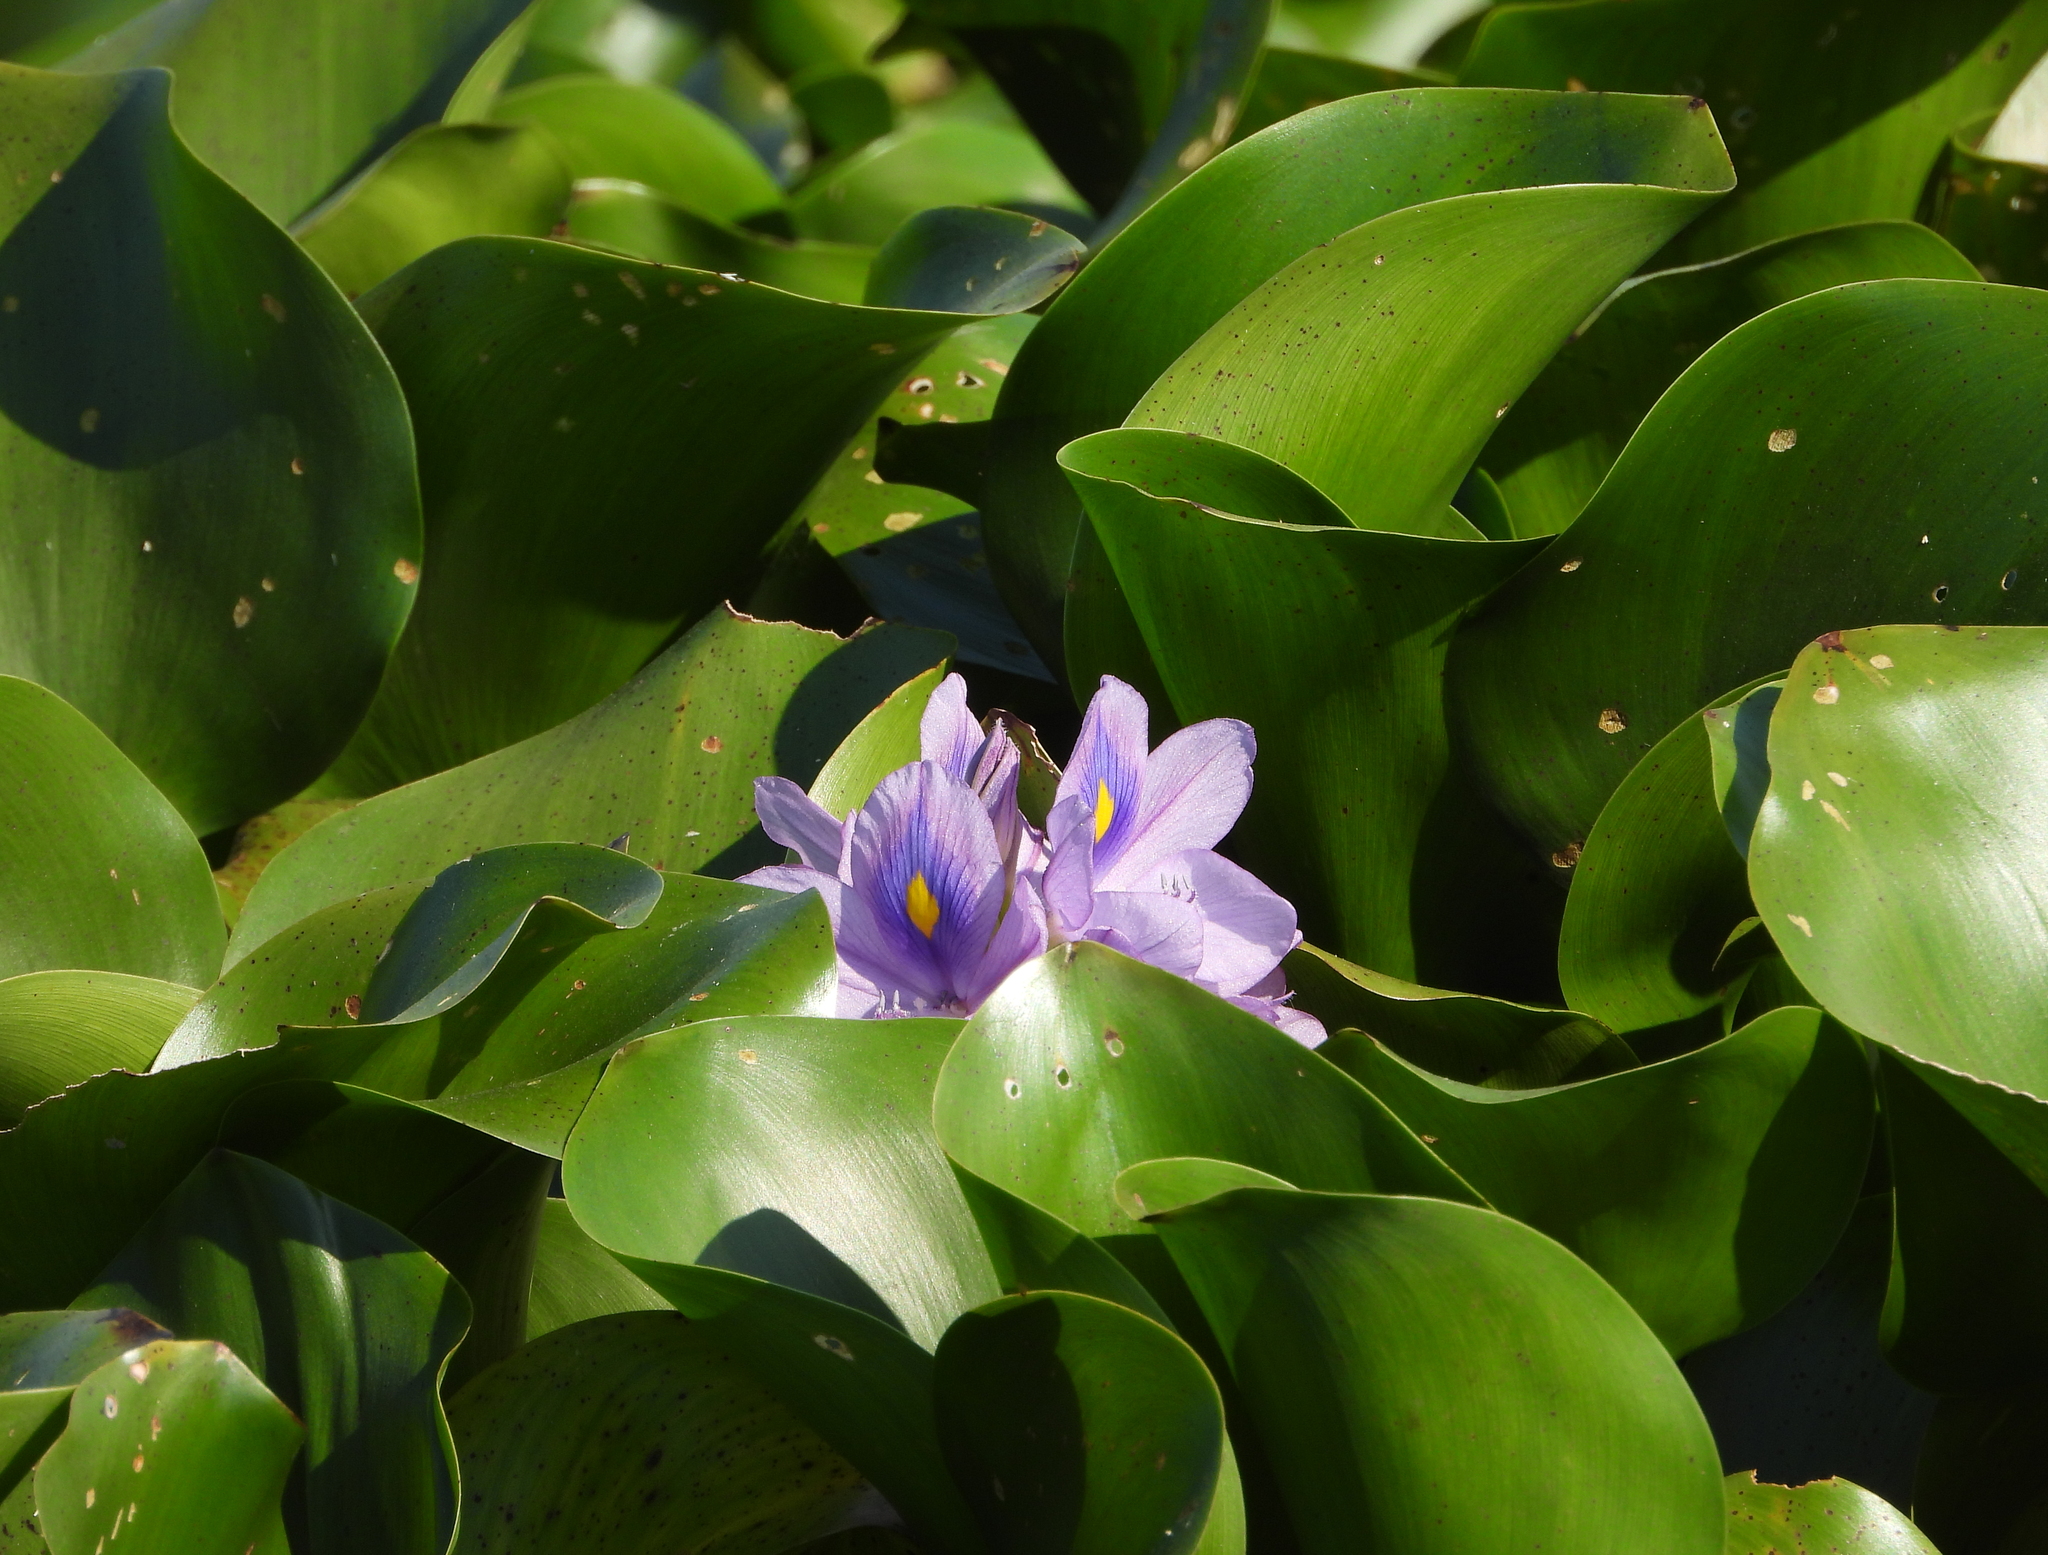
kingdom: Plantae
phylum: Tracheophyta
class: Liliopsida
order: Commelinales
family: Pontederiaceae
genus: Pontederia
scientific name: Pontederia crassipes
